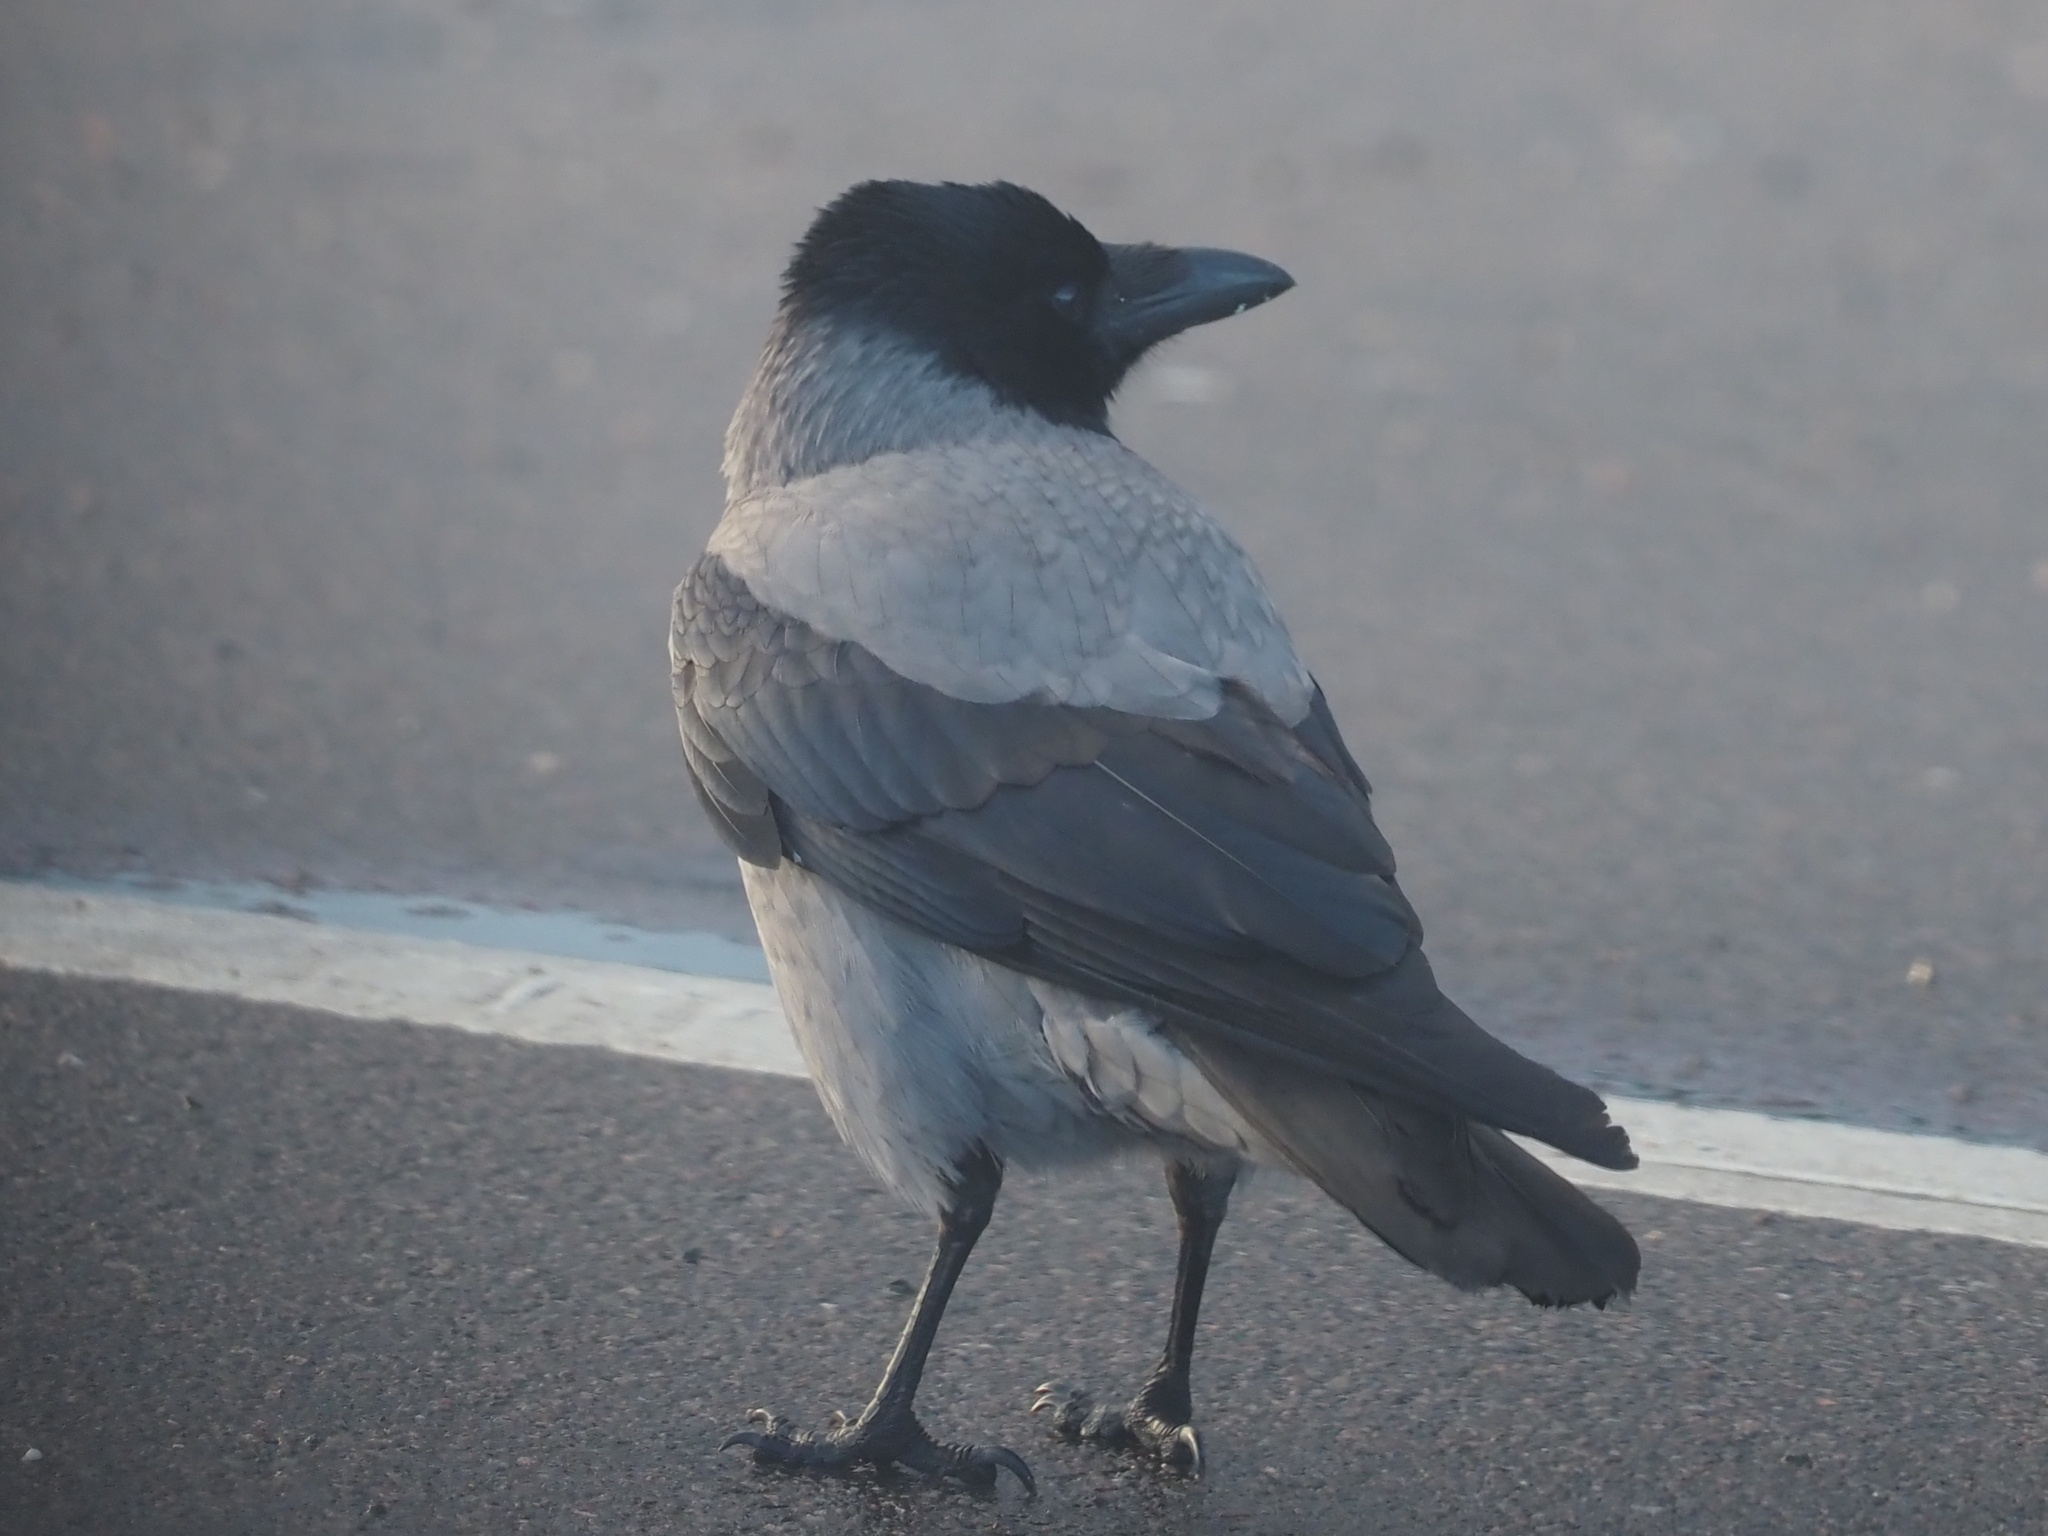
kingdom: Animalia
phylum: Chordata
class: Aves
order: Passeriformes
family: Corvidae
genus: Corvus
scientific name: Corvus cornix
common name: Hooded crow
